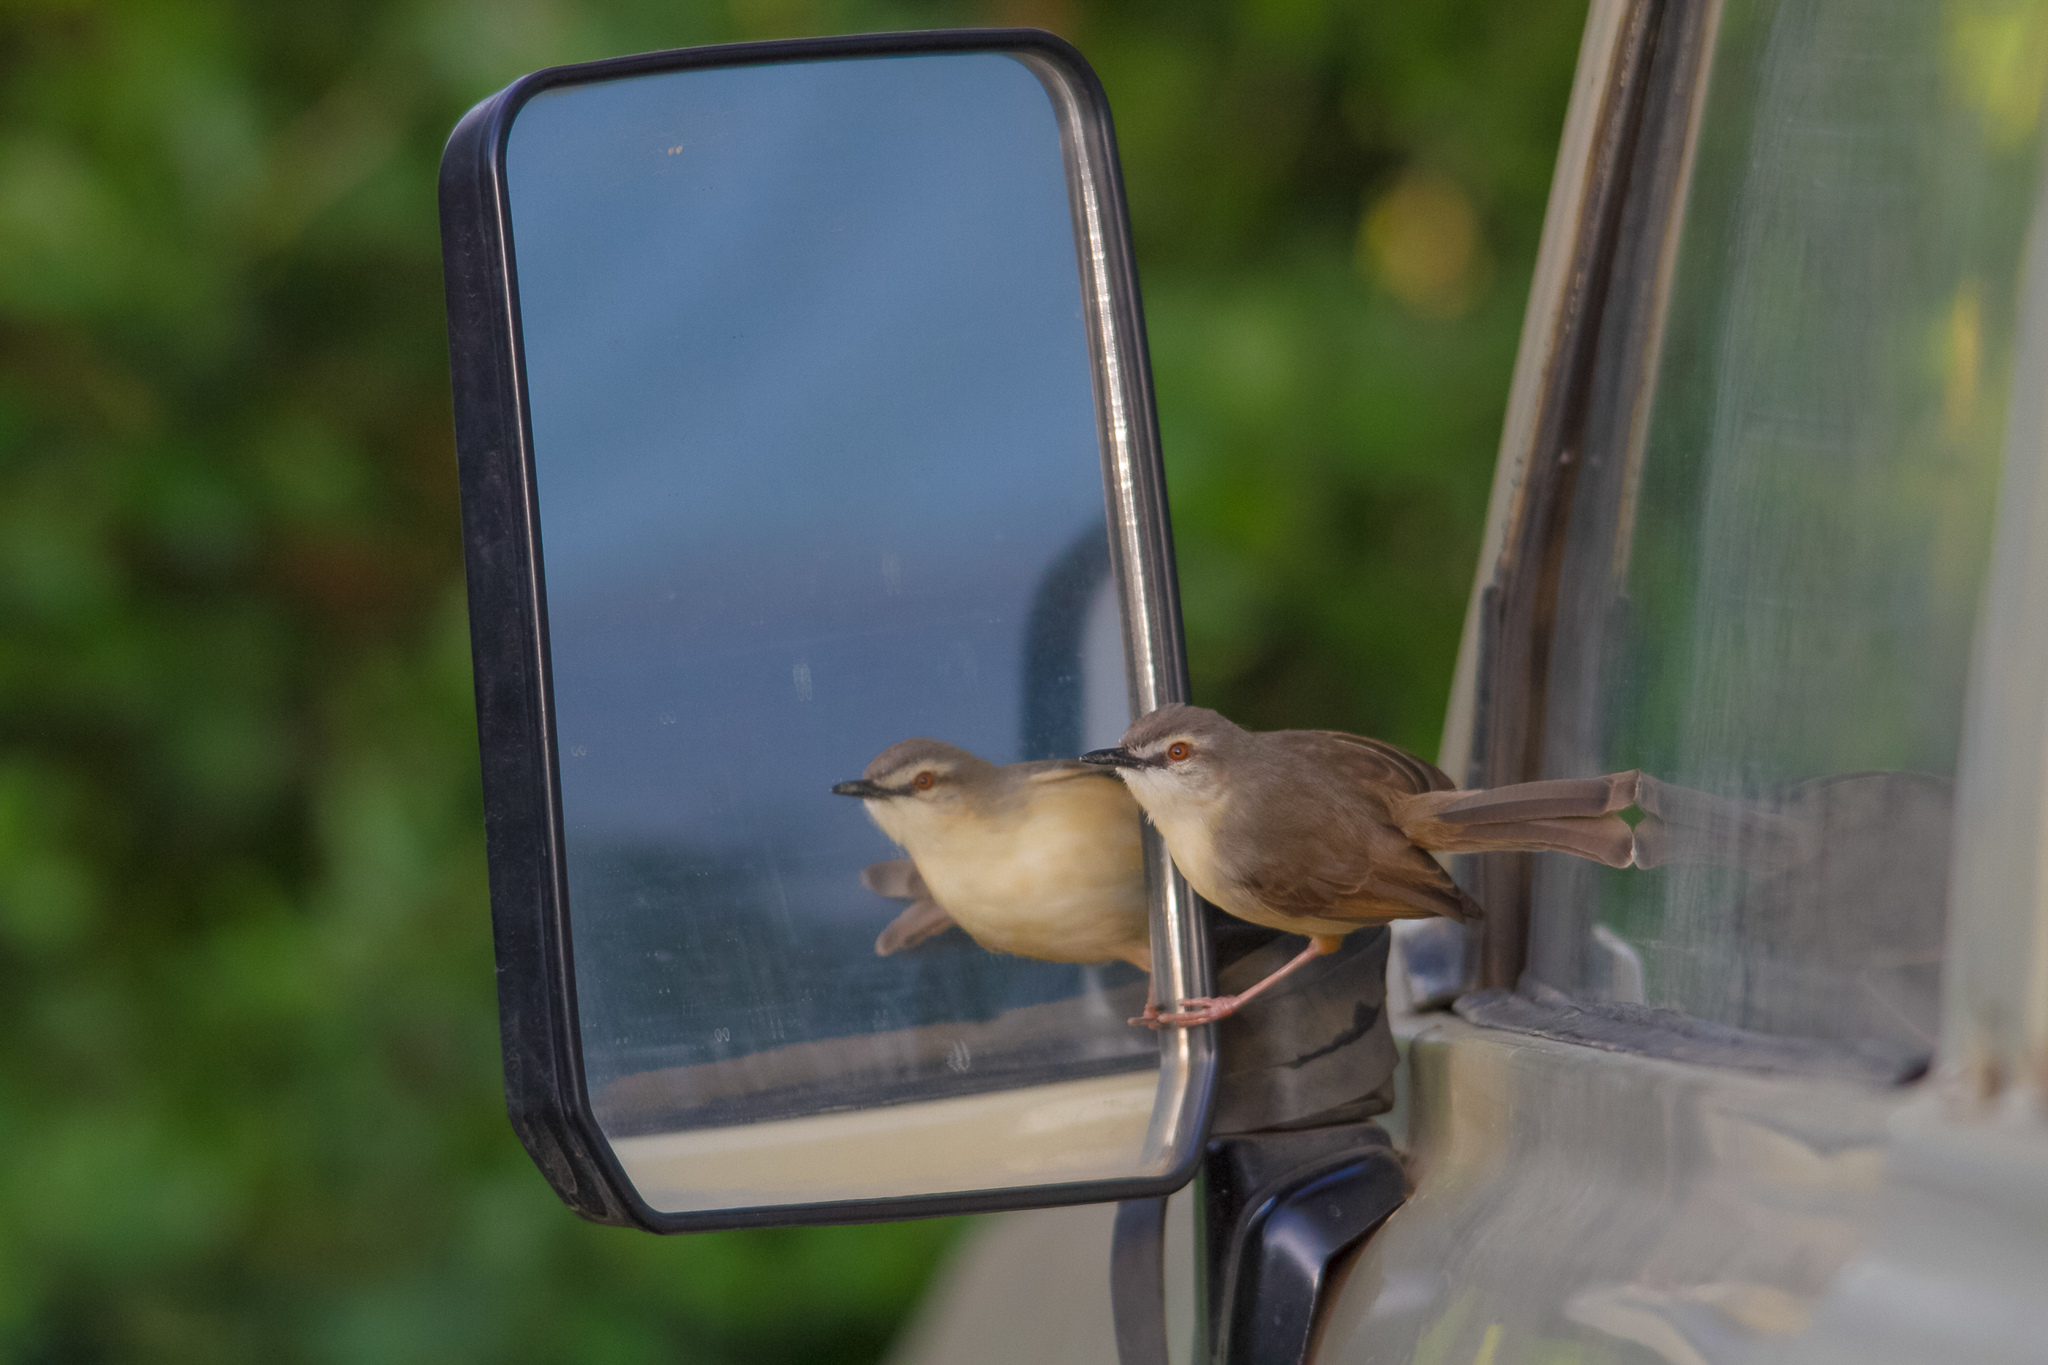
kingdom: Animalia
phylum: Chordata
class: Aves
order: Passeriformes
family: Cisticolidae
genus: Prinia
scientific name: Prinia subflava
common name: Tawny-flanked prinia
